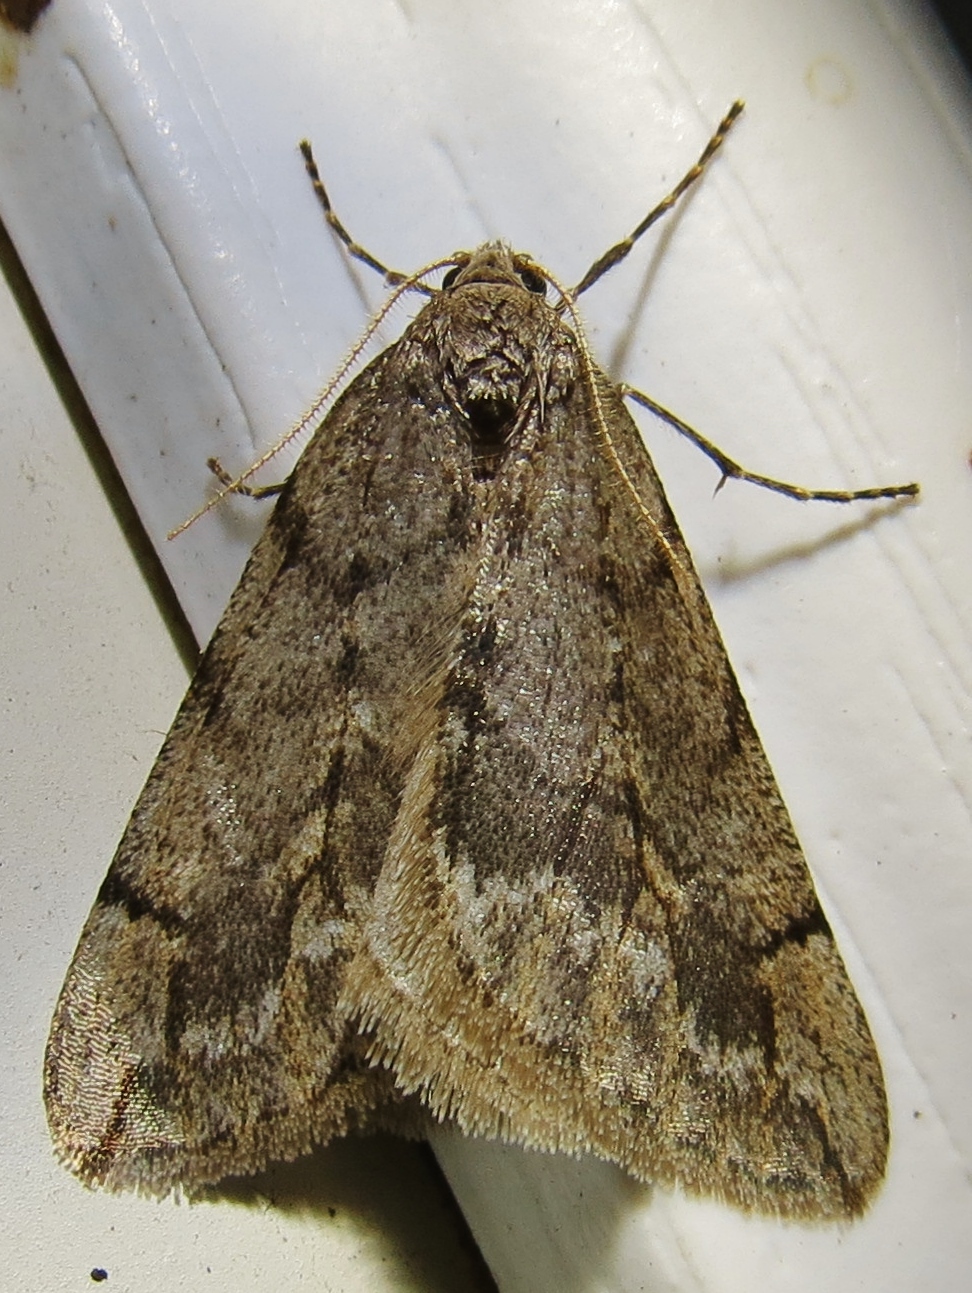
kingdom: Animalia
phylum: Arthropoda
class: Insecta
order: Lepidoptera
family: Geometridae
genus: Paleacrita
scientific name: Paleacrita vernata
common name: Spring cankerworm
